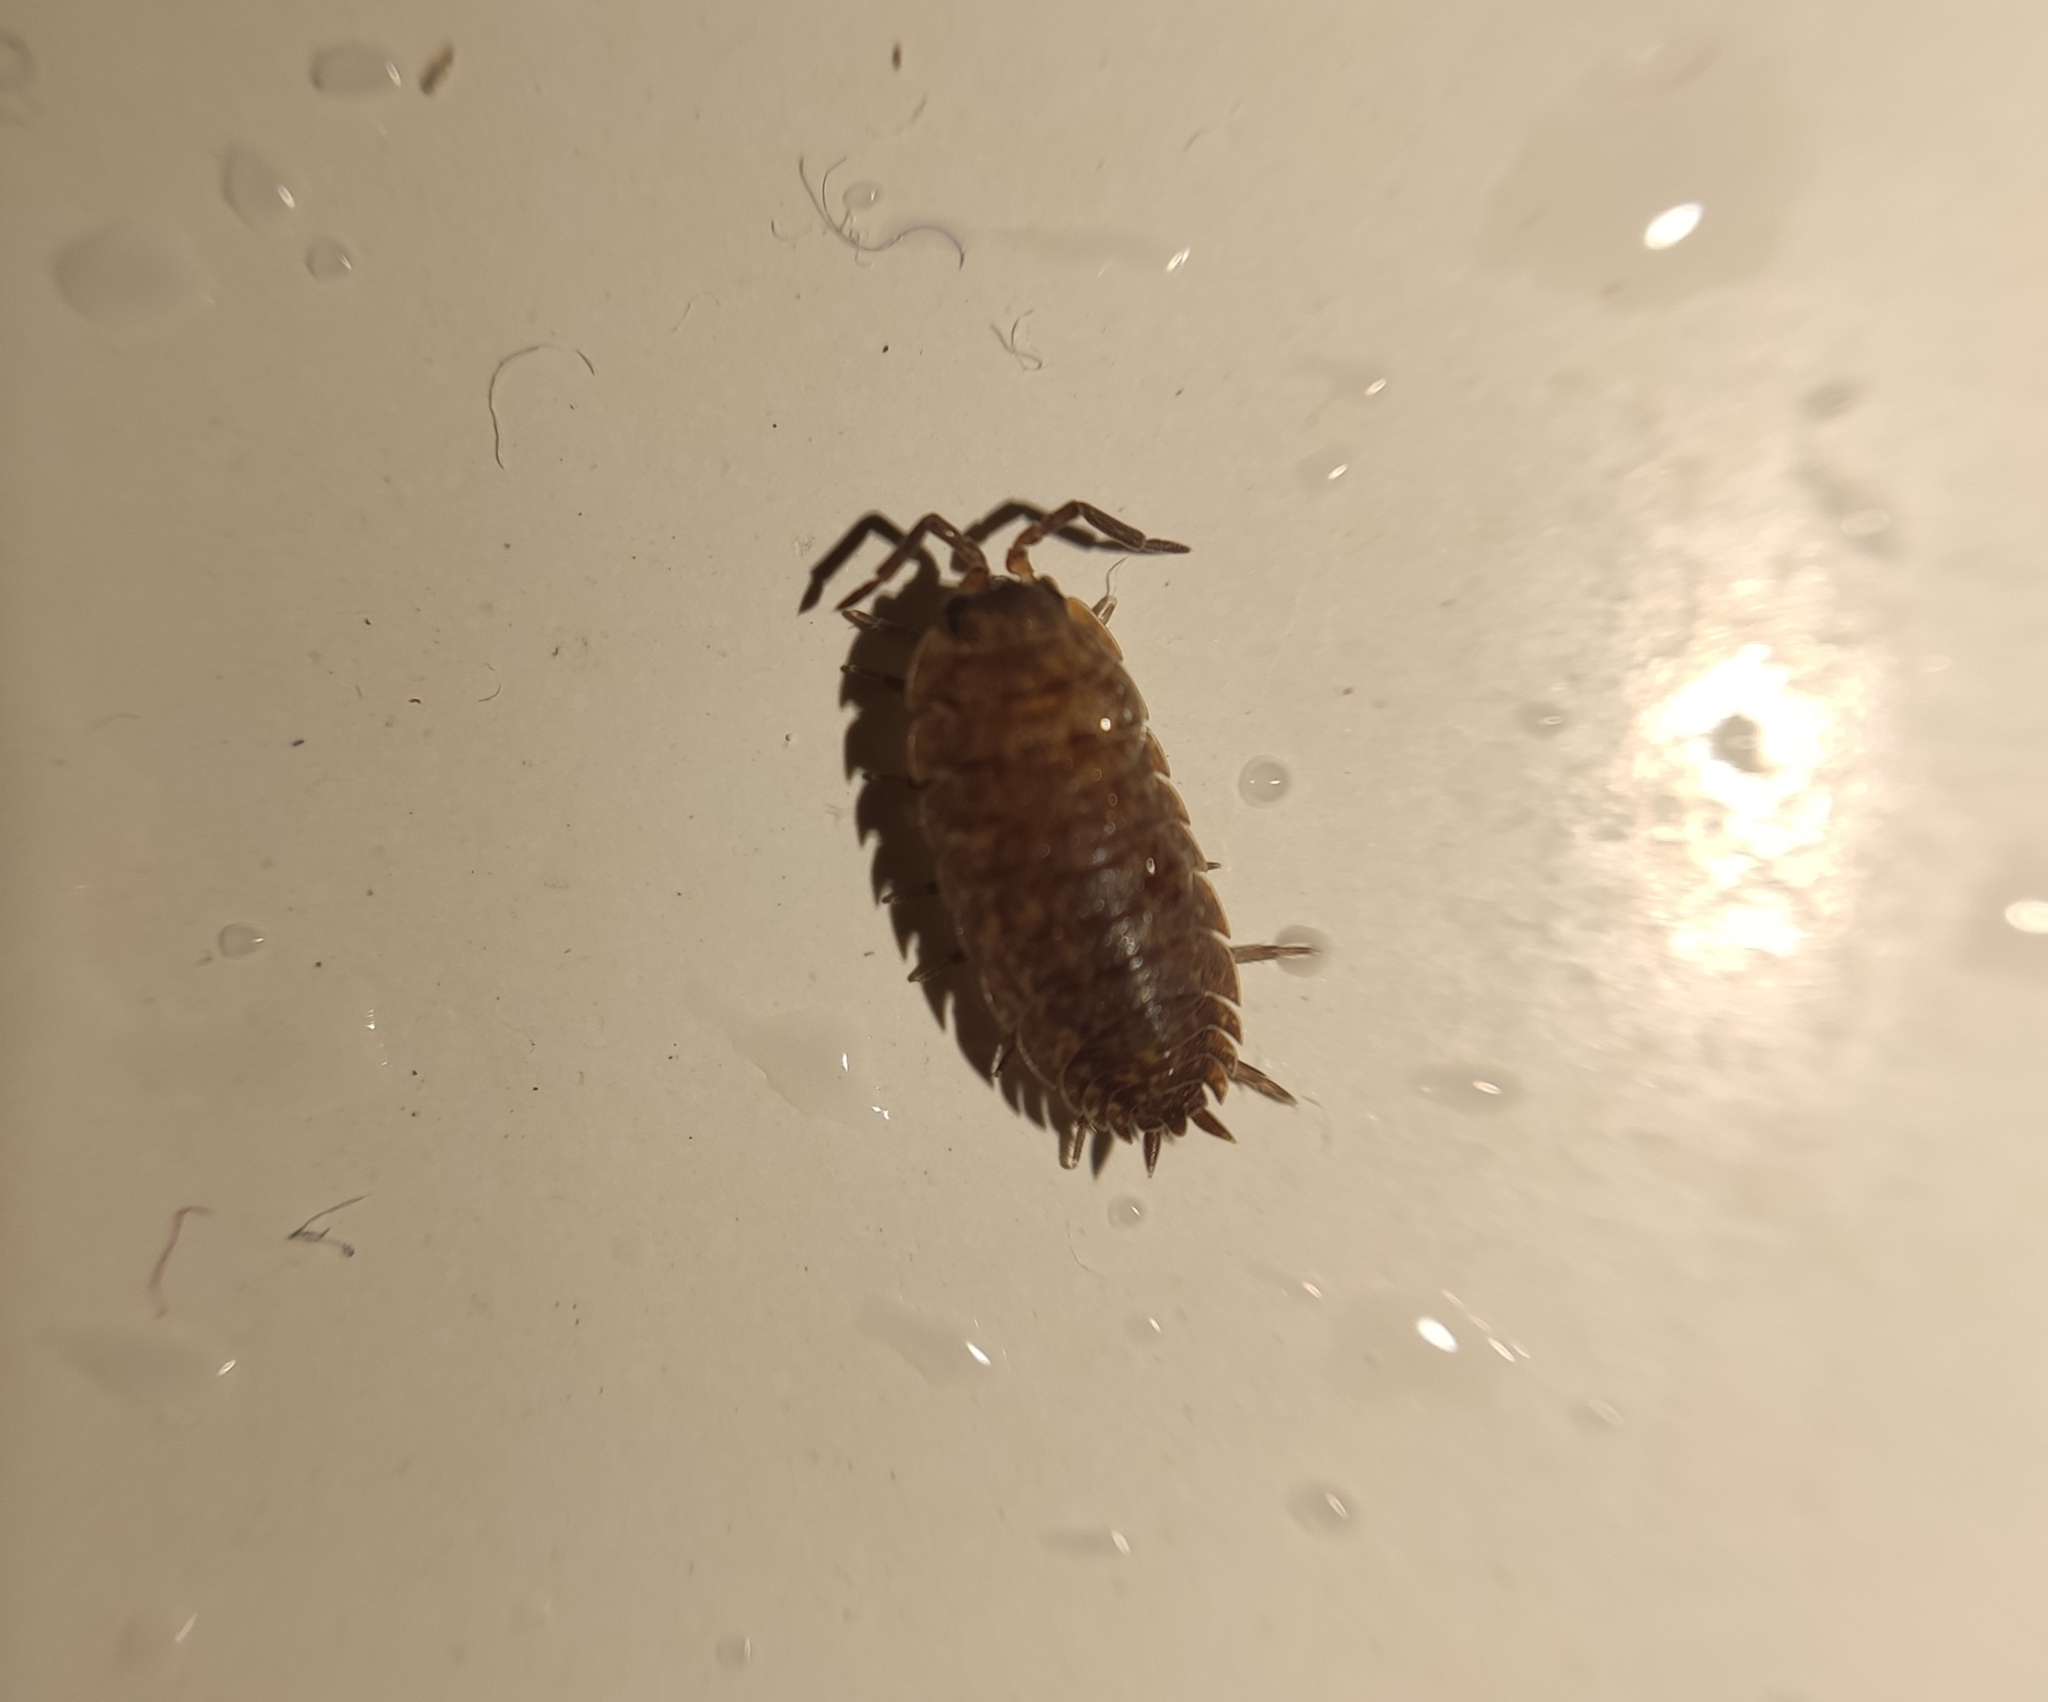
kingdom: Animalia
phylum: Arthropoda
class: Malacostraca
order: Isopoda
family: Porcellionidae
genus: Porcellio
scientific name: Porcellio scaber
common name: Common rough woodlouse
